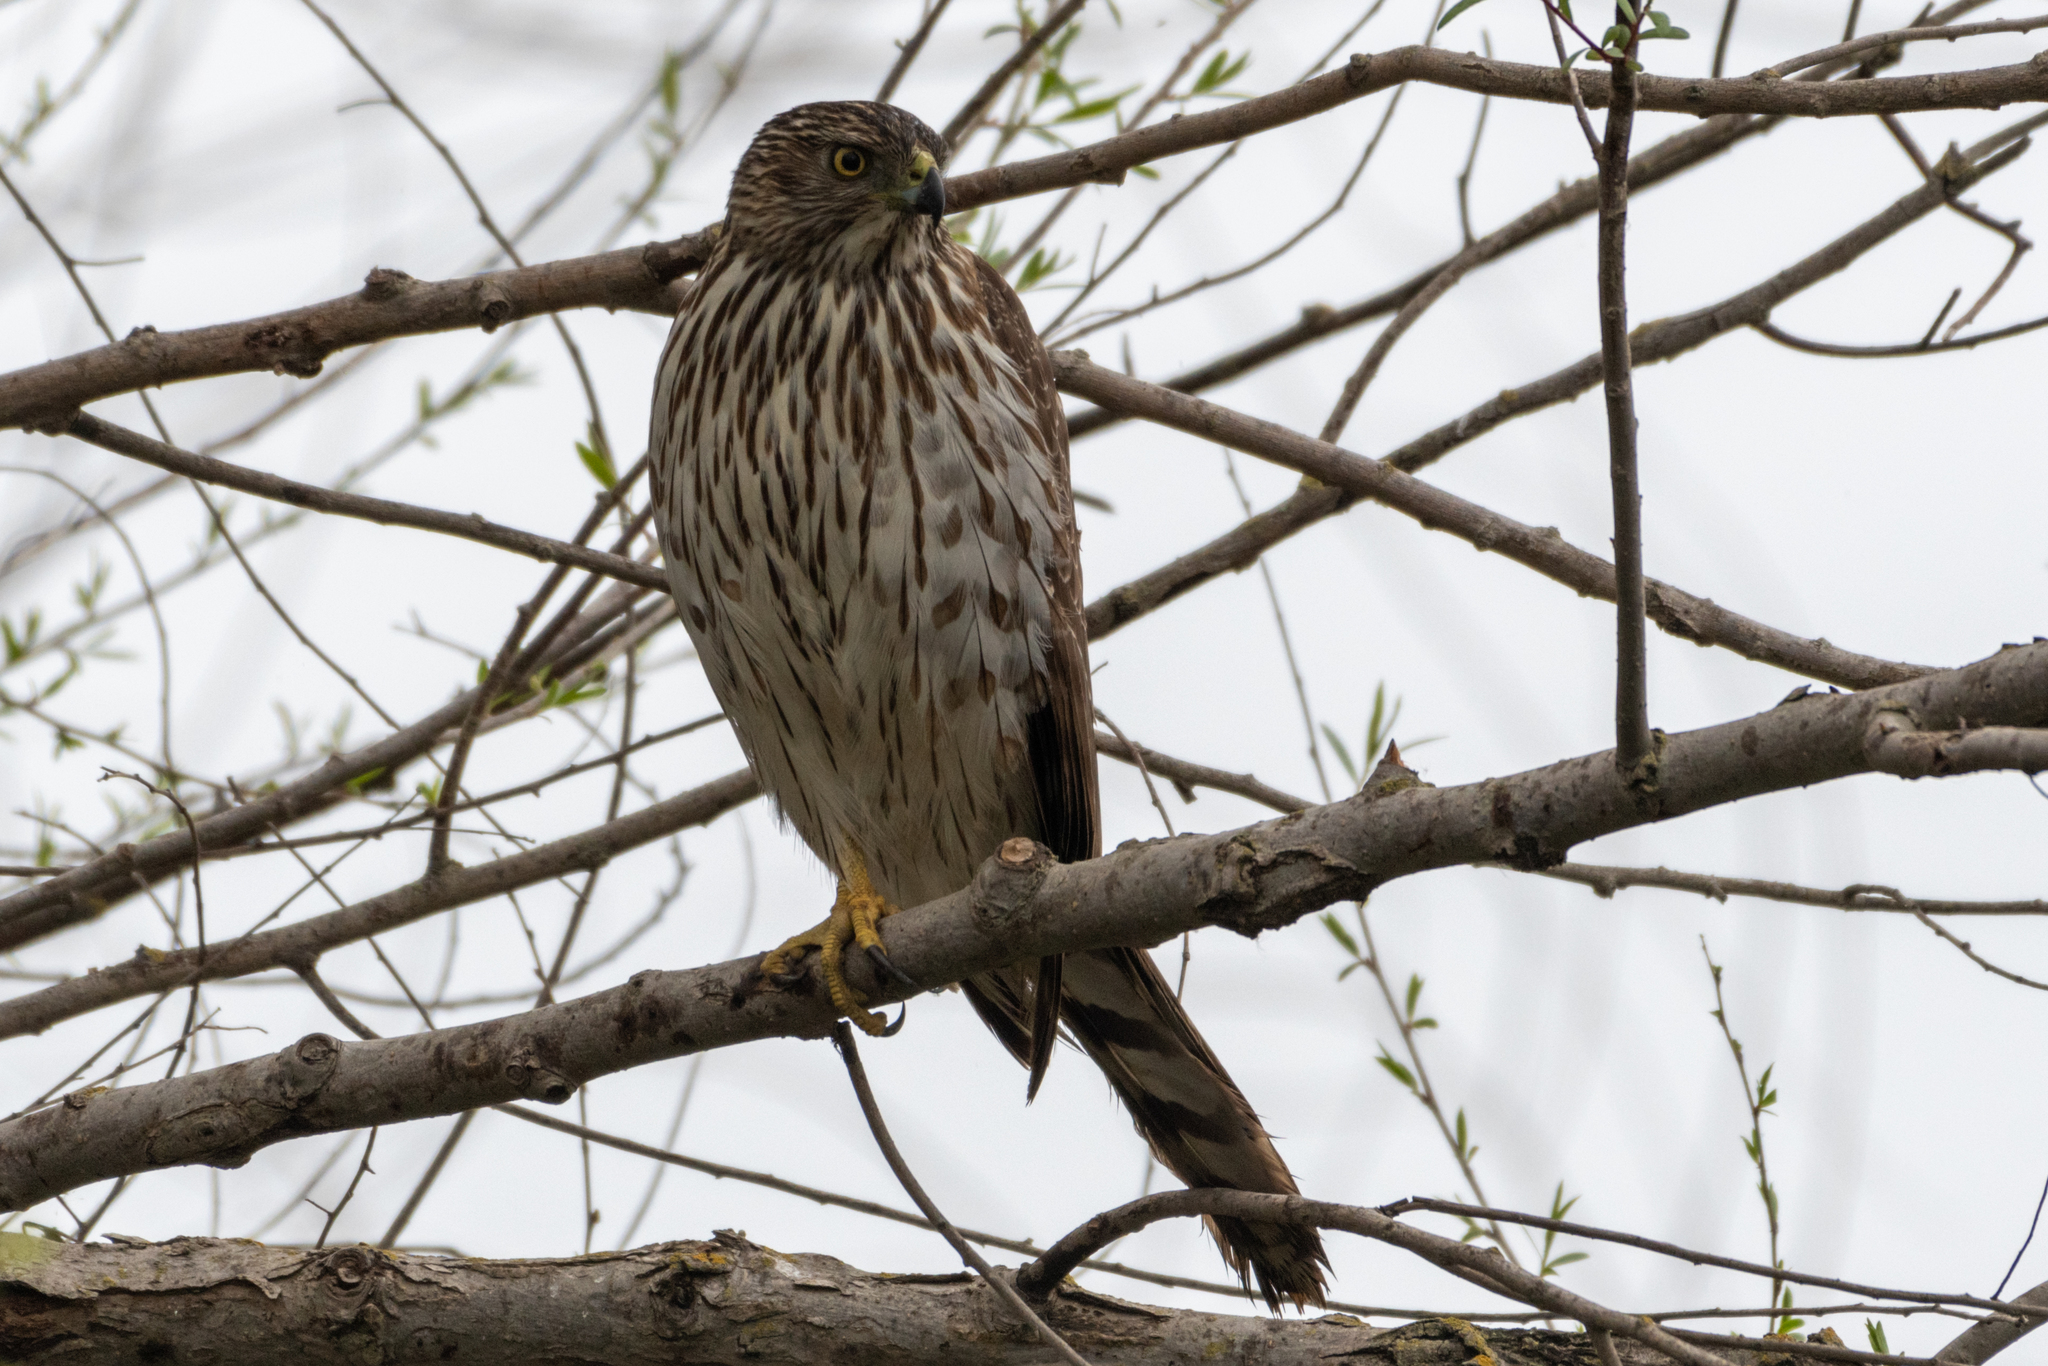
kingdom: Animalia
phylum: Chordata
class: Aves
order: Accipitriformes
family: Accipitridae
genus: Accipiter
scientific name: Accipiter cooperii
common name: Cooper's hawk
